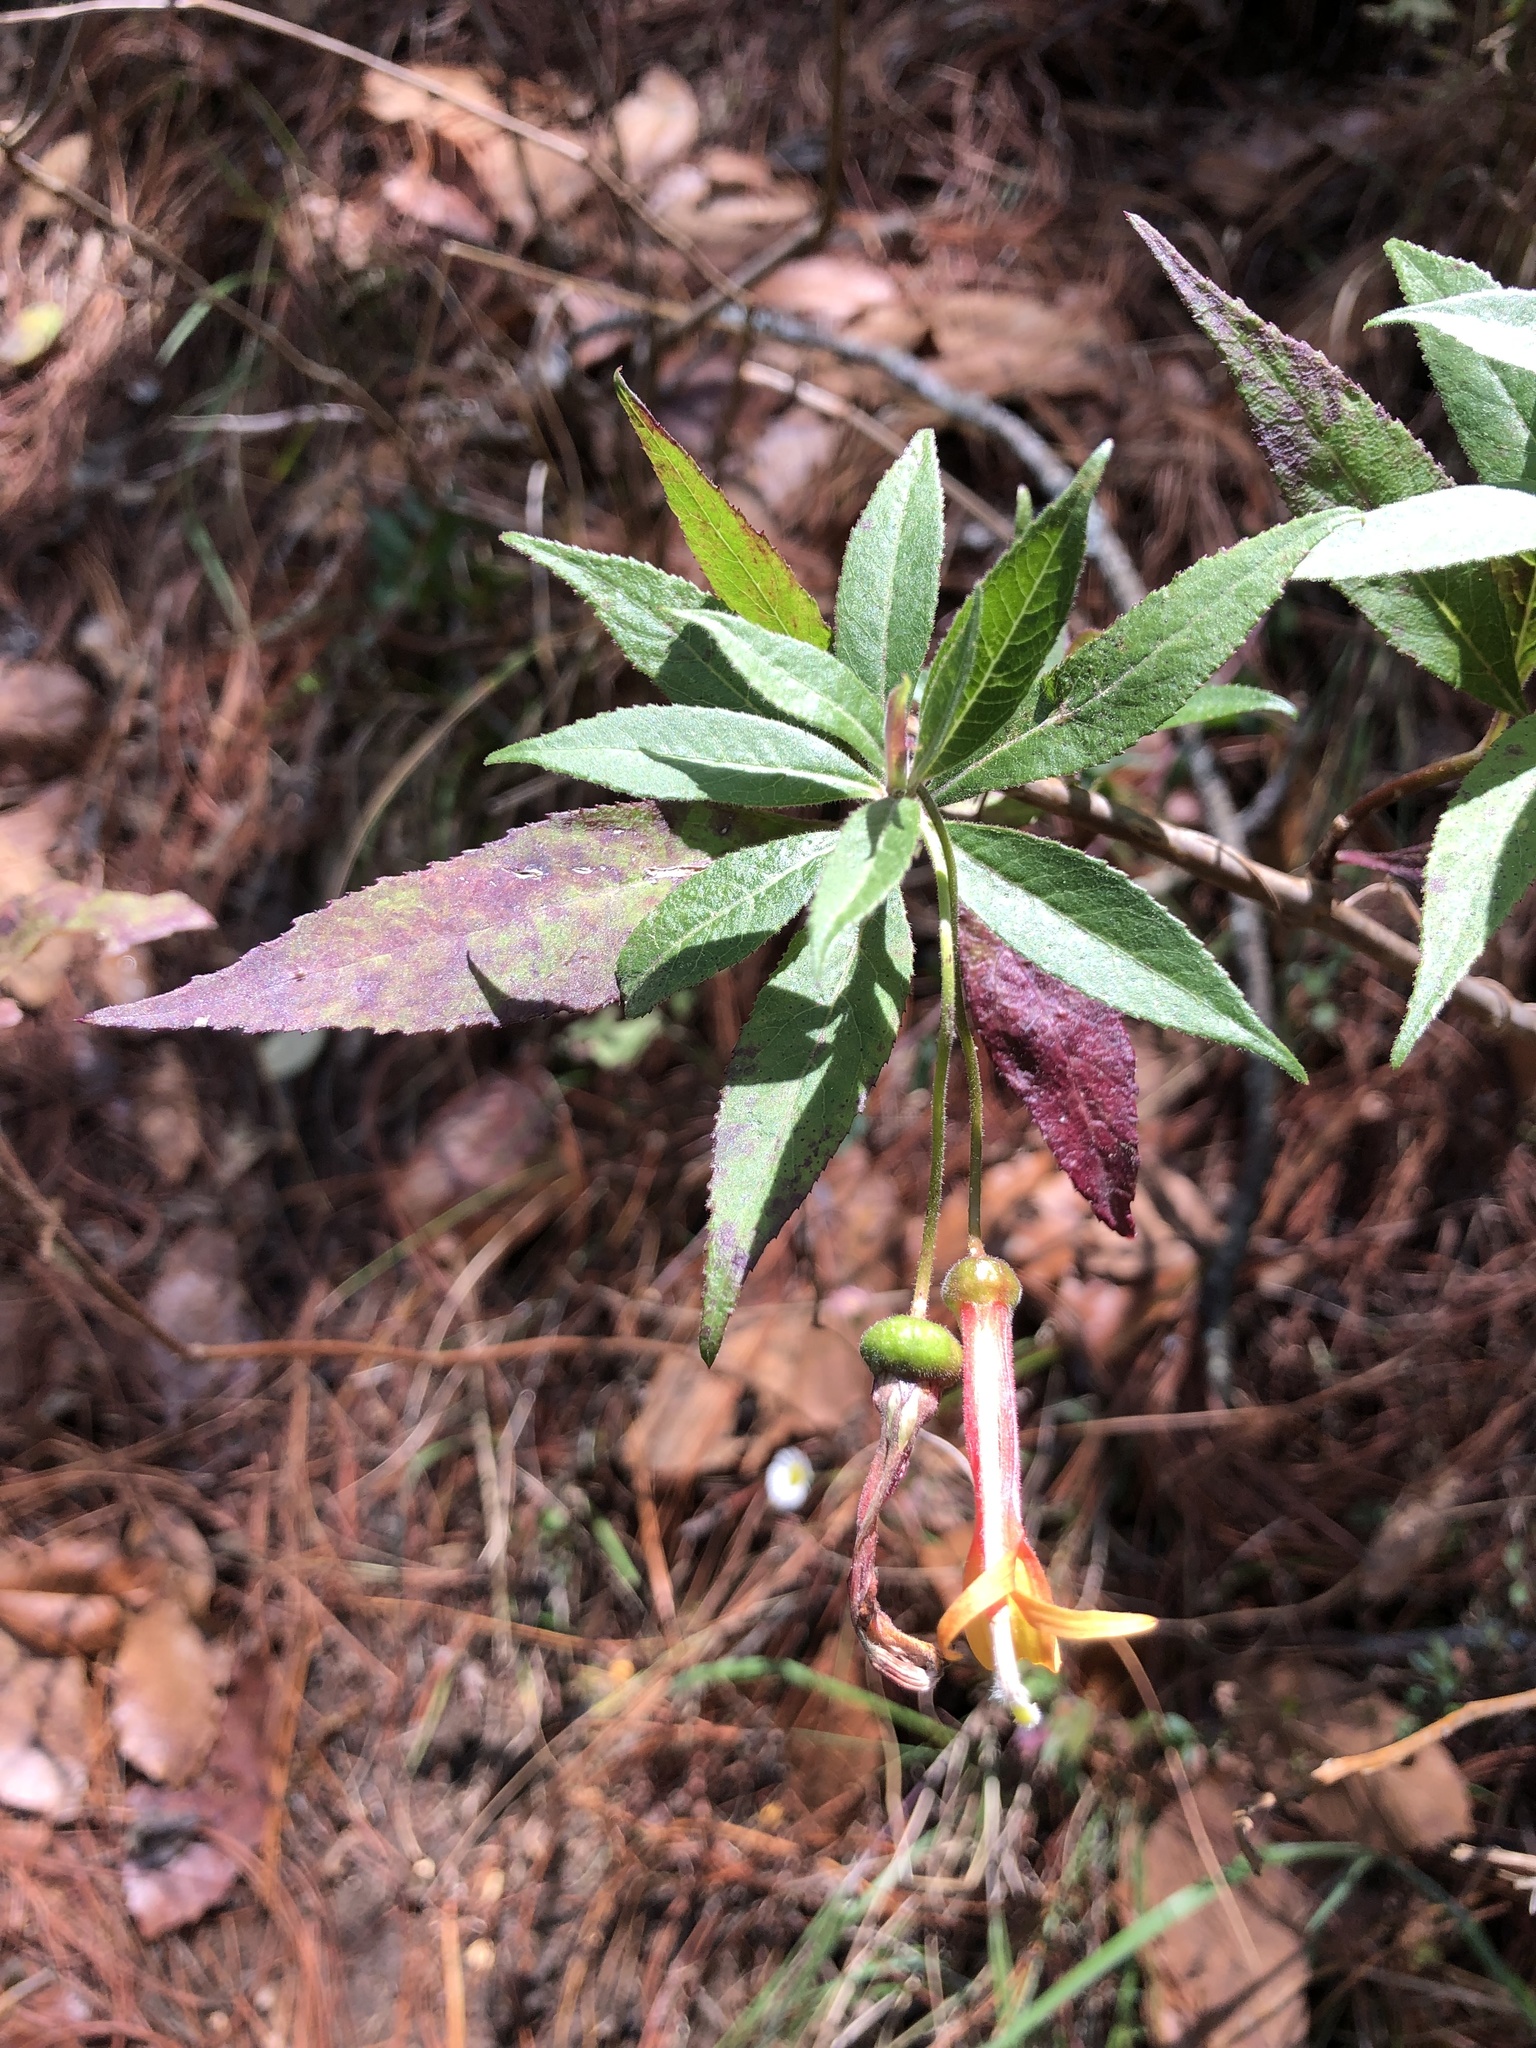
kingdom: Plantae
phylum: Tracheophyta
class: Magnoliopsida
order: Asterales
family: Campanulaceae
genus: Lobelia
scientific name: Lobelia laxiflora
